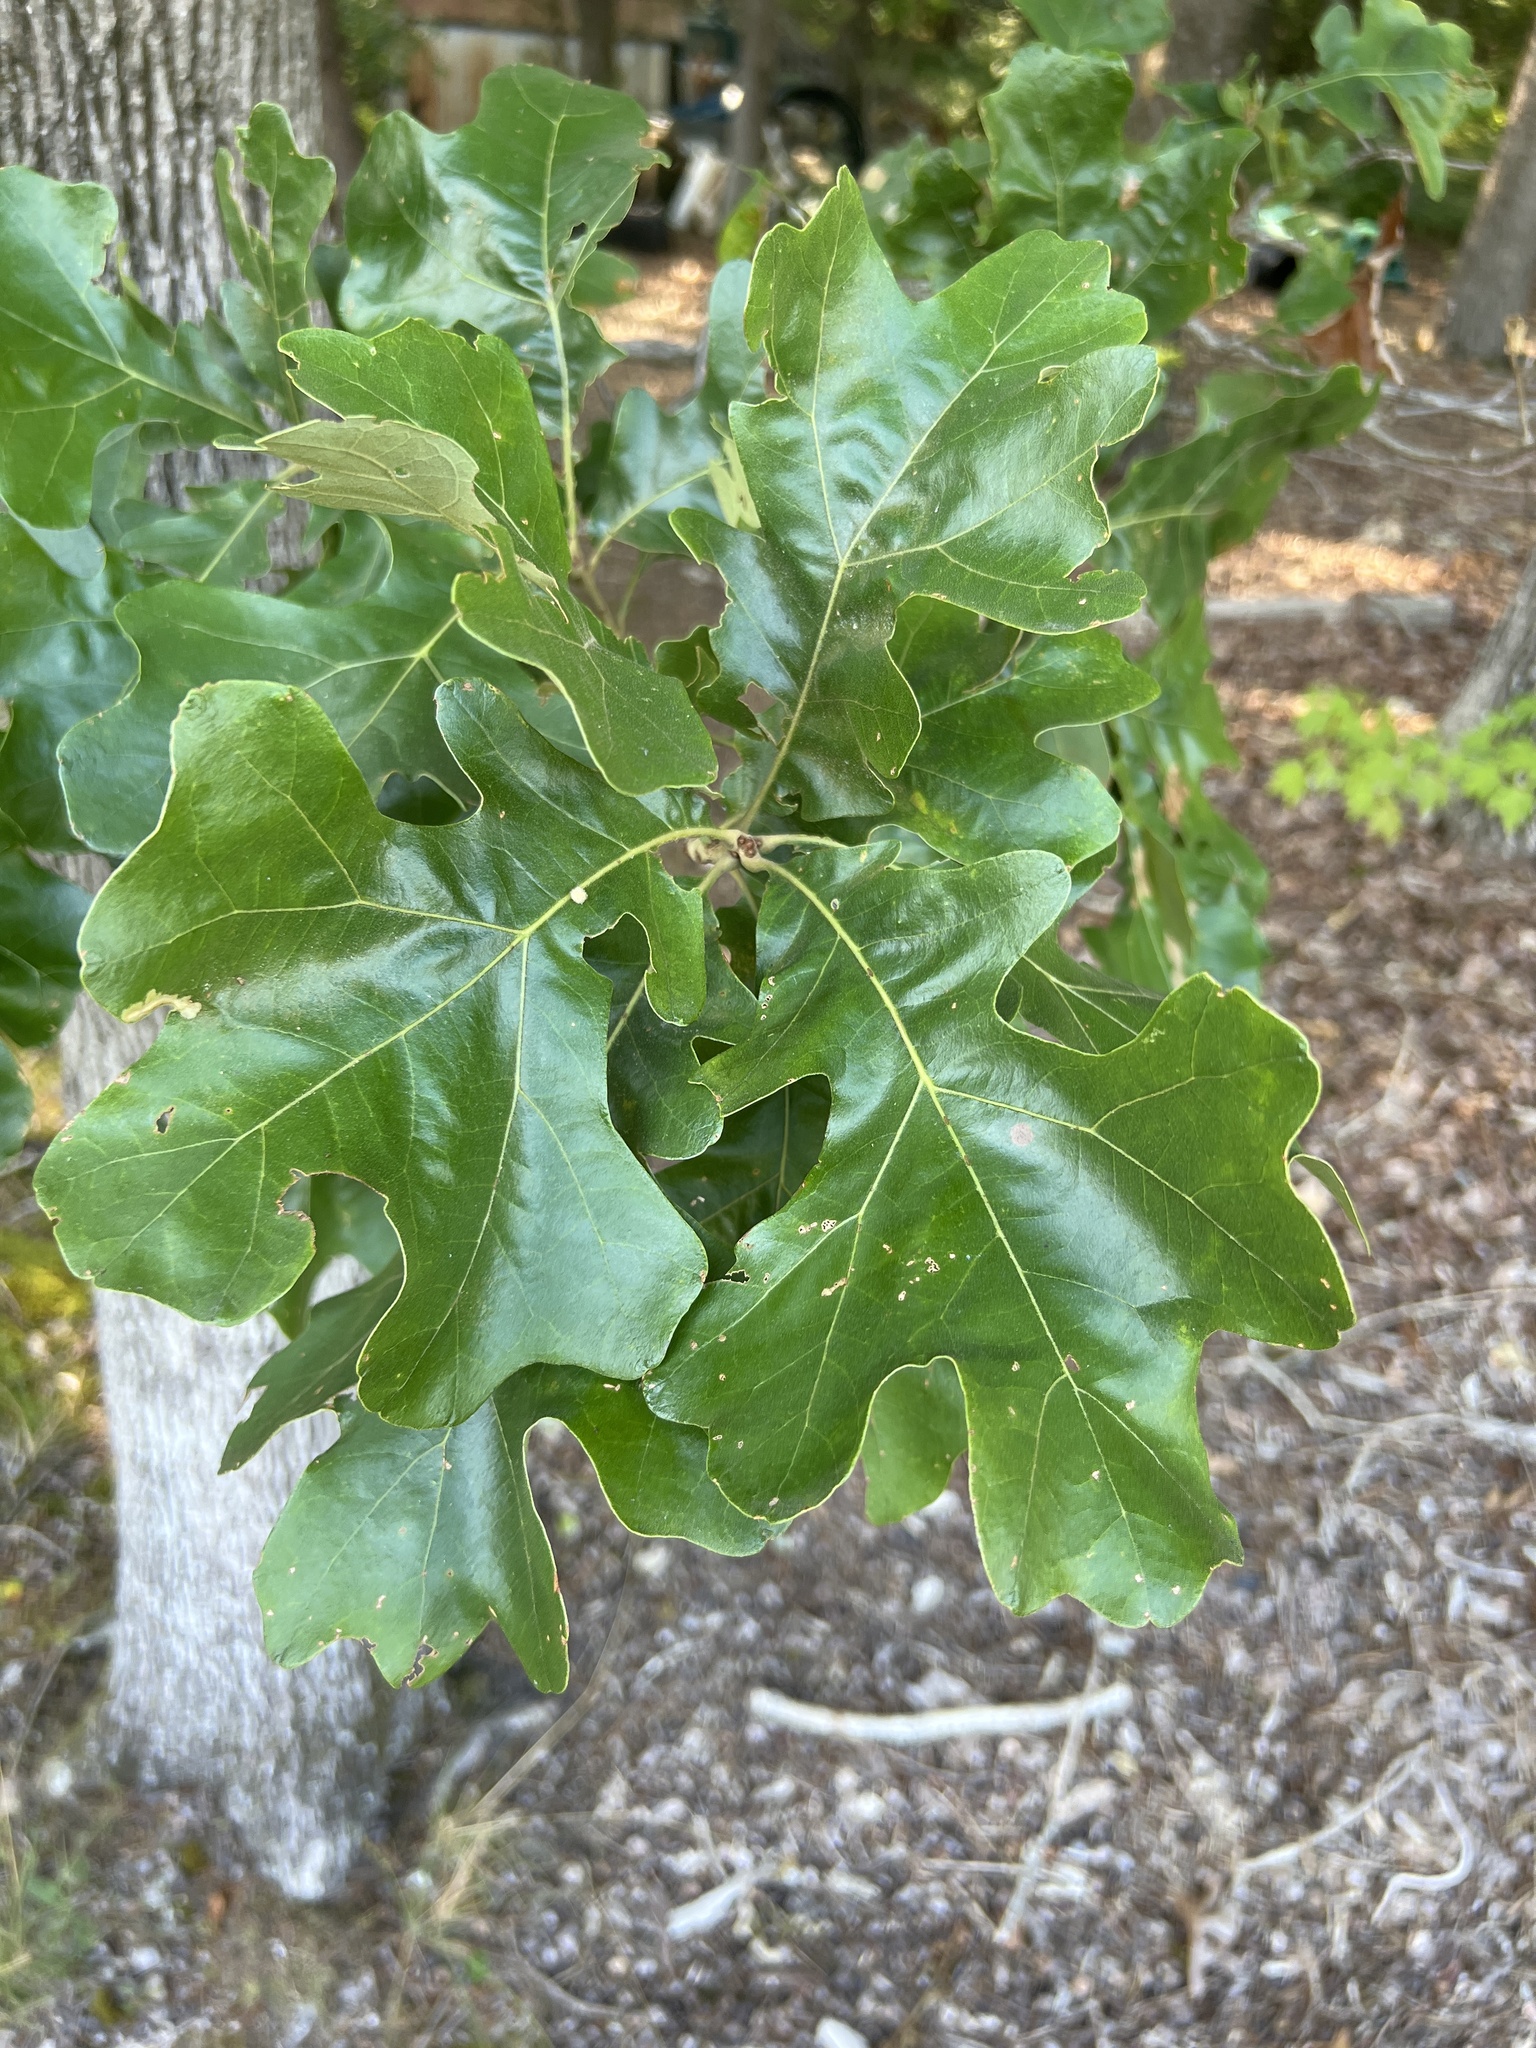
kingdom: Plantae
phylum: Tracheophyta
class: Magnoliopsida
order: Fagales
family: Fagaceae
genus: Quercus
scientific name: Quercus stellata
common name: Post oak
